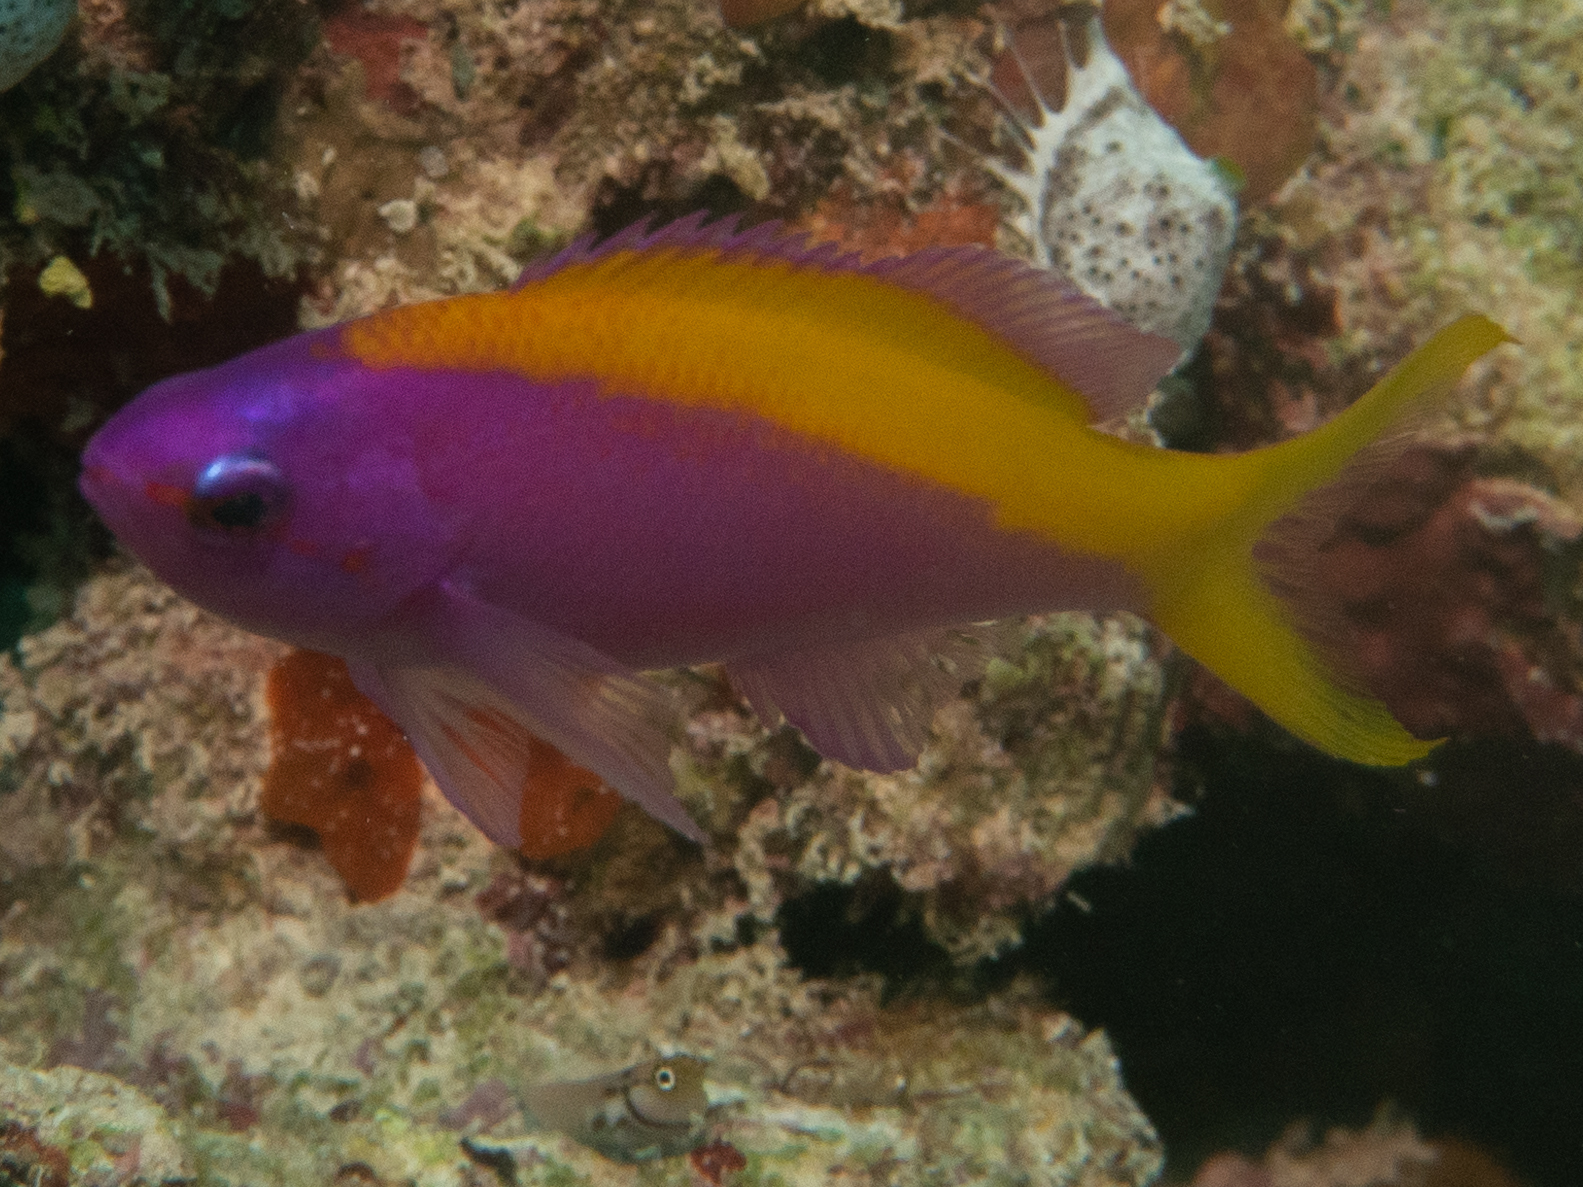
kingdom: Animalia
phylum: Chordata
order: Perciformes
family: Serranidae
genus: Pseudanthias
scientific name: Pseudanthias evansi
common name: Goldback anthias
